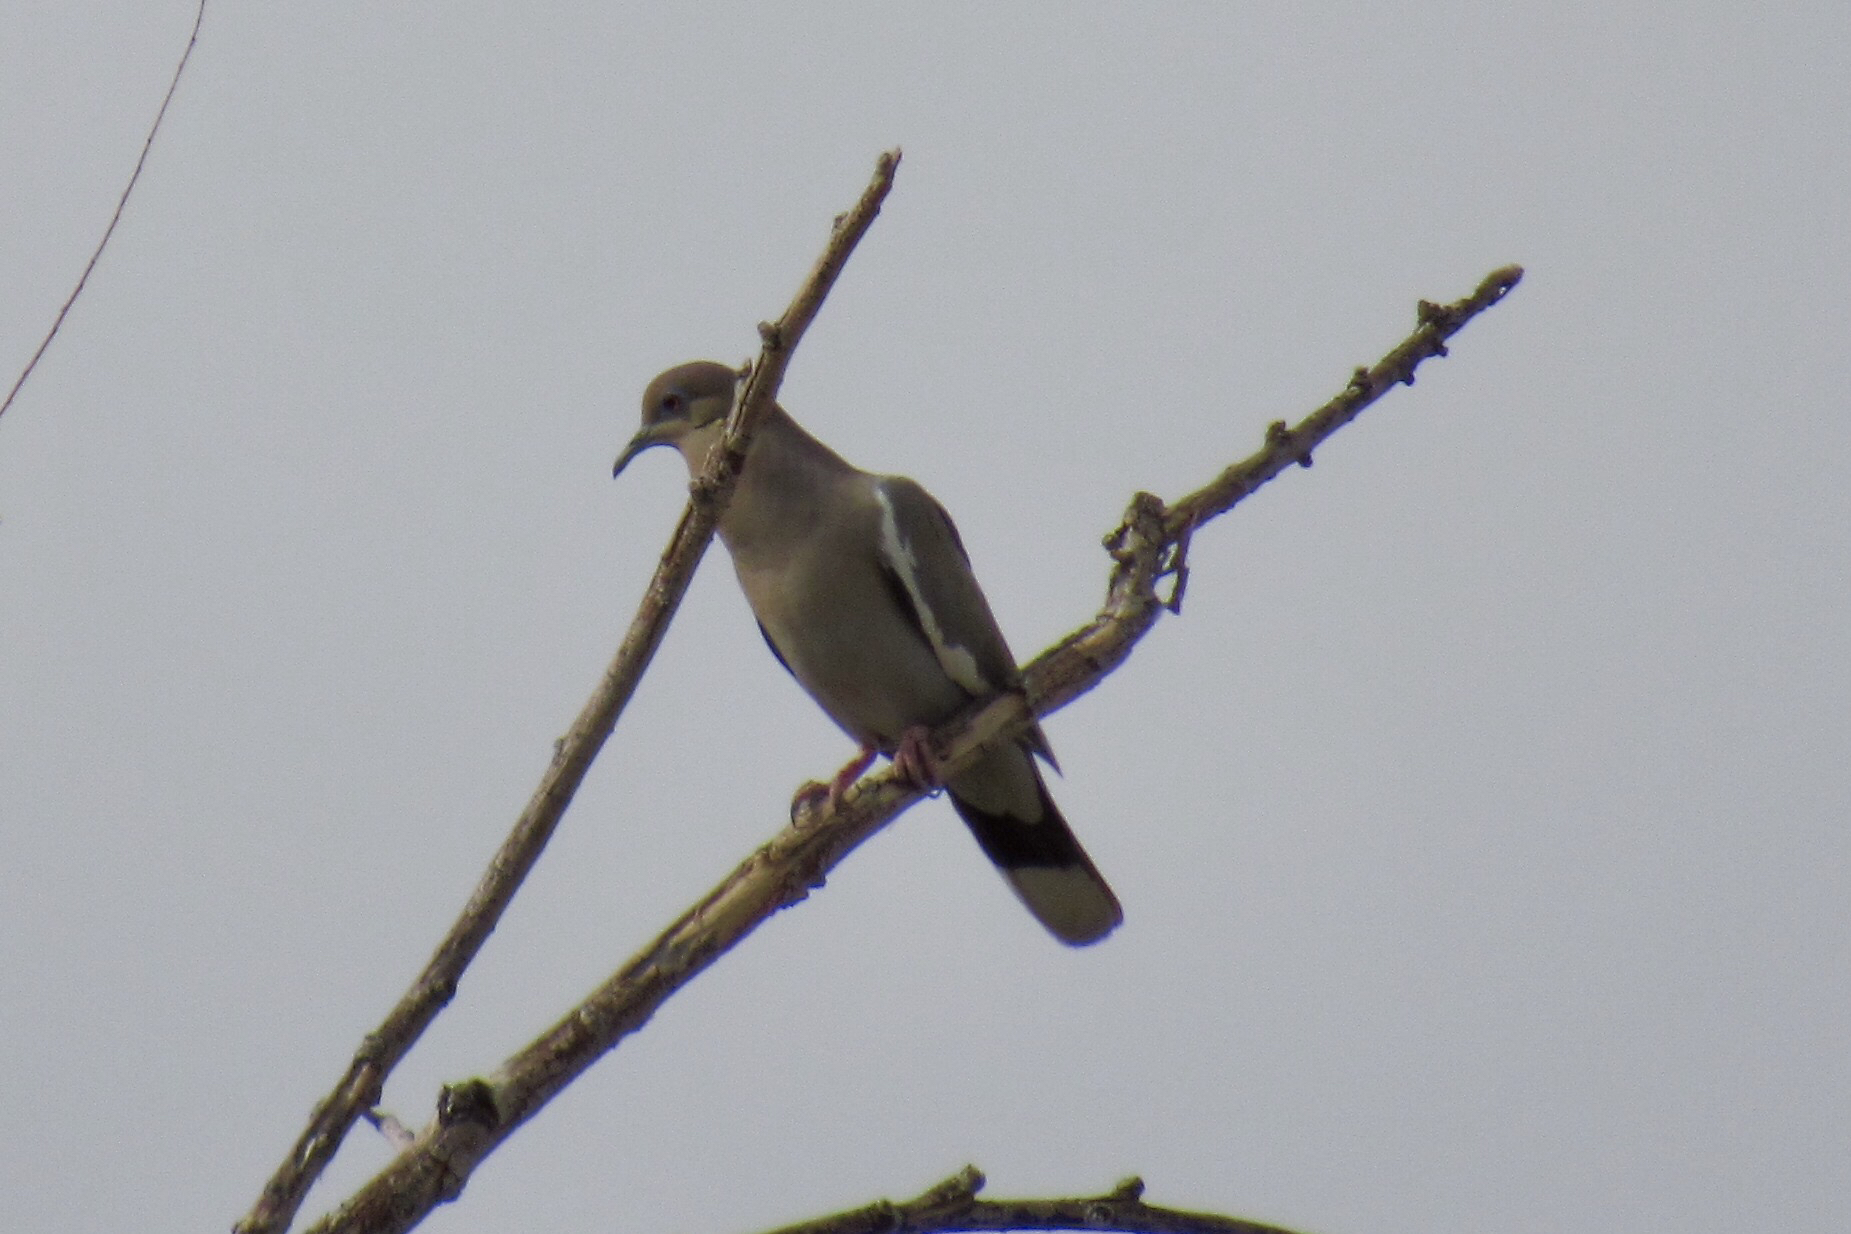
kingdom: Animalia
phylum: Chordata
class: Aves
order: Columbiformes
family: Columbidae
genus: Zenaida
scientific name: Zenaida asiatica
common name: White-winged dove
